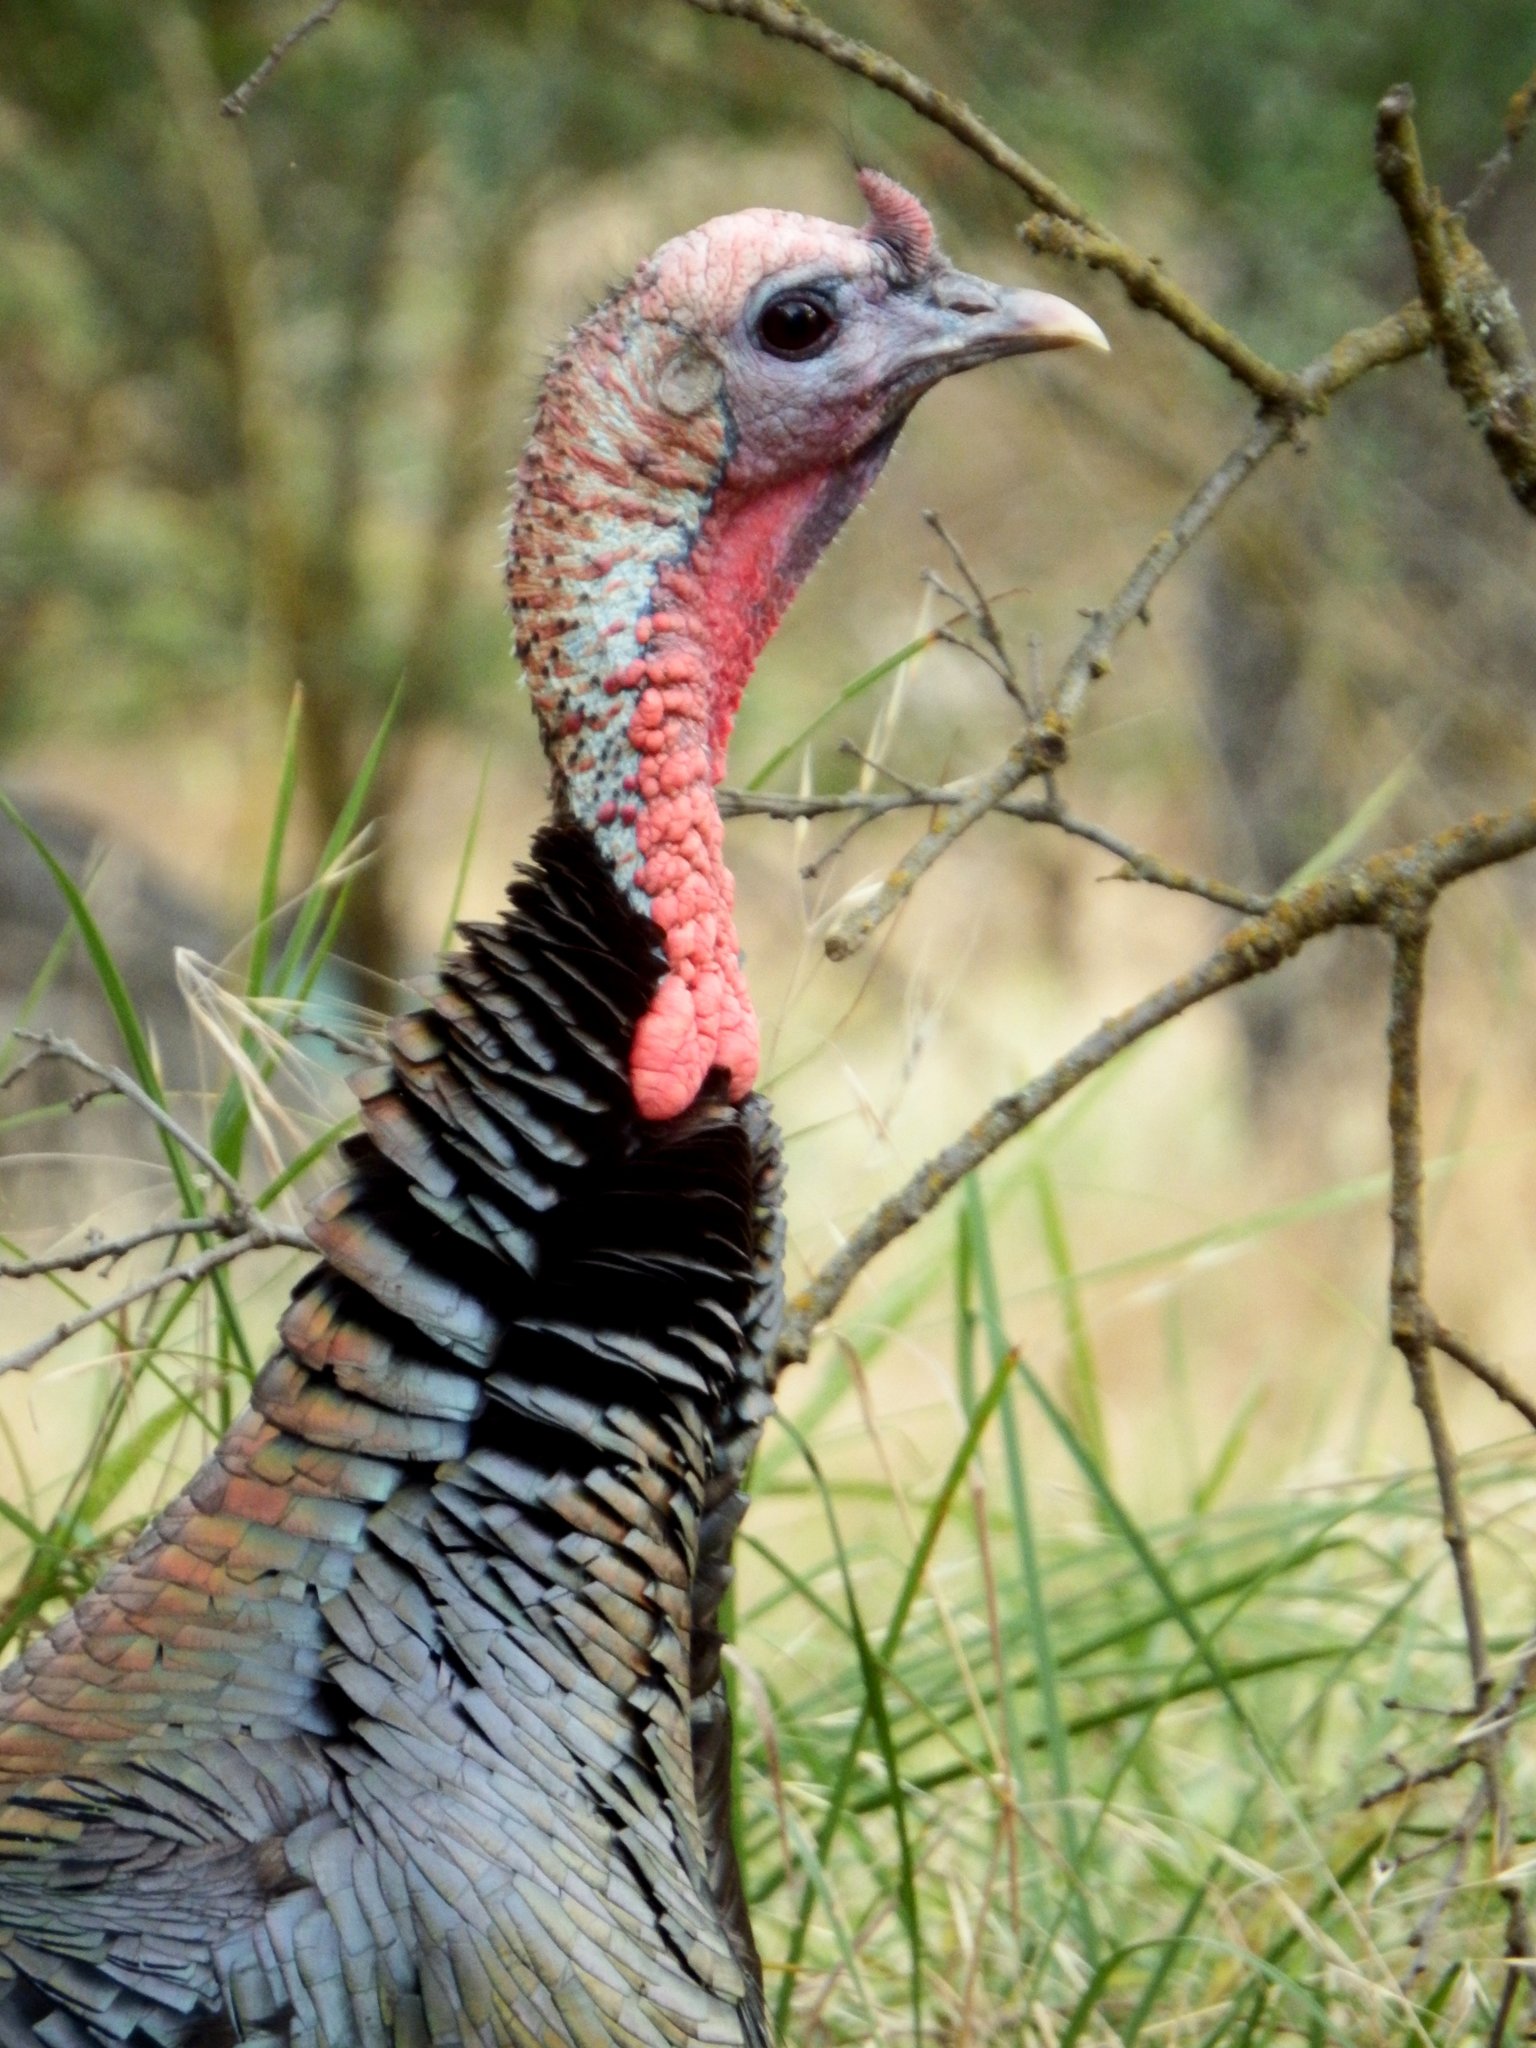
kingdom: Animalia
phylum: Chordata
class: Aves
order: Galliformes
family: Phasianidae
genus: Meleagris
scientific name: Meleagris gallopavo
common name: Wild turkey
